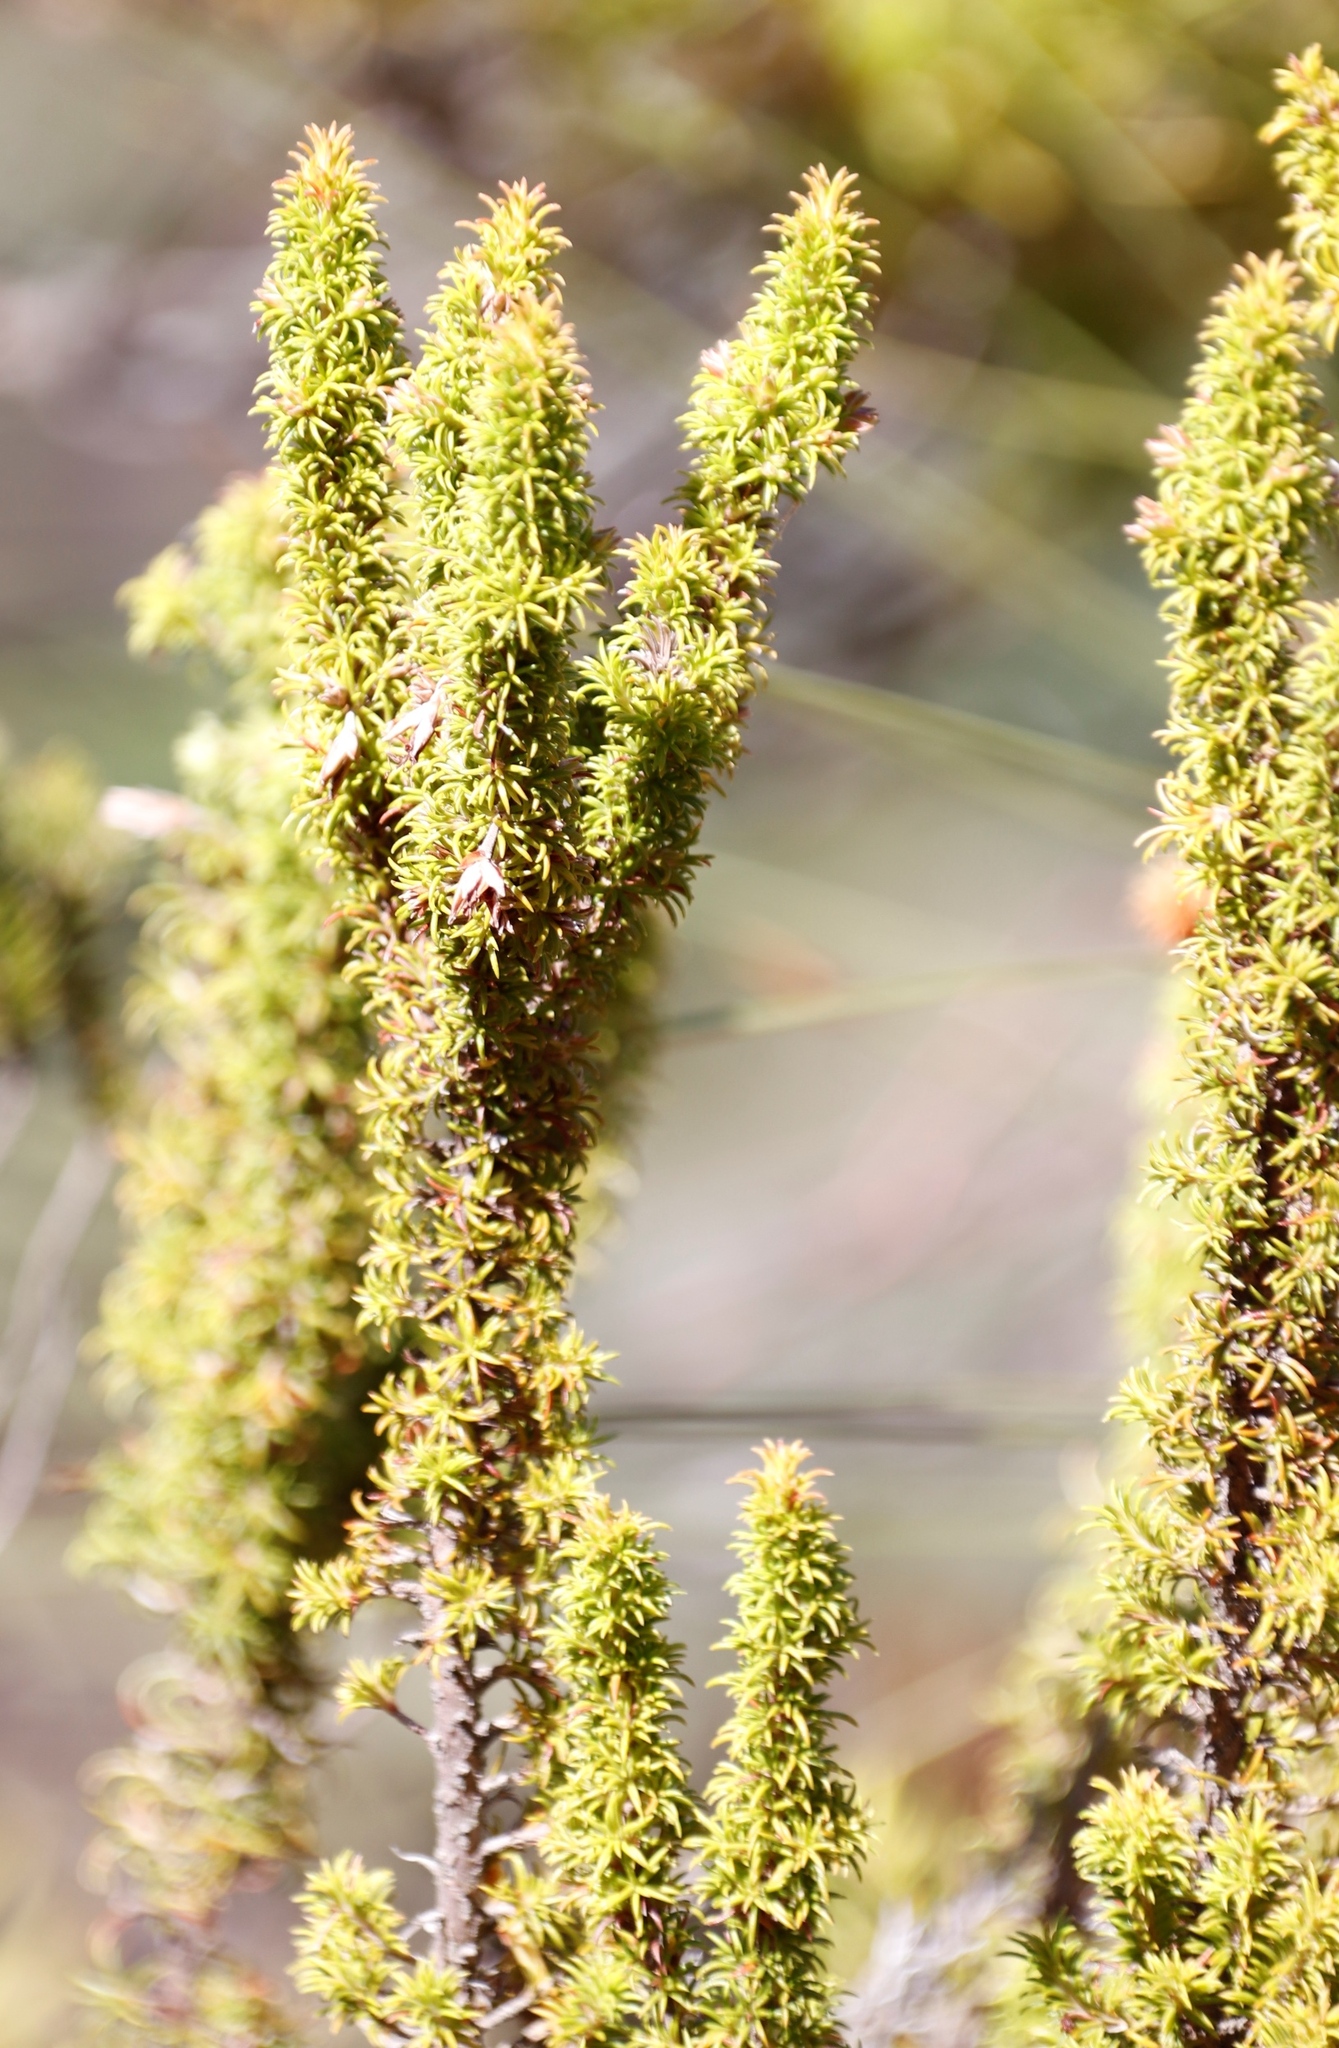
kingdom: Plantae
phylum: Tracheophyta
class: Magnoliopsida
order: Ericales
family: Ericaceae
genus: Erica
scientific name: Erica coccinea
